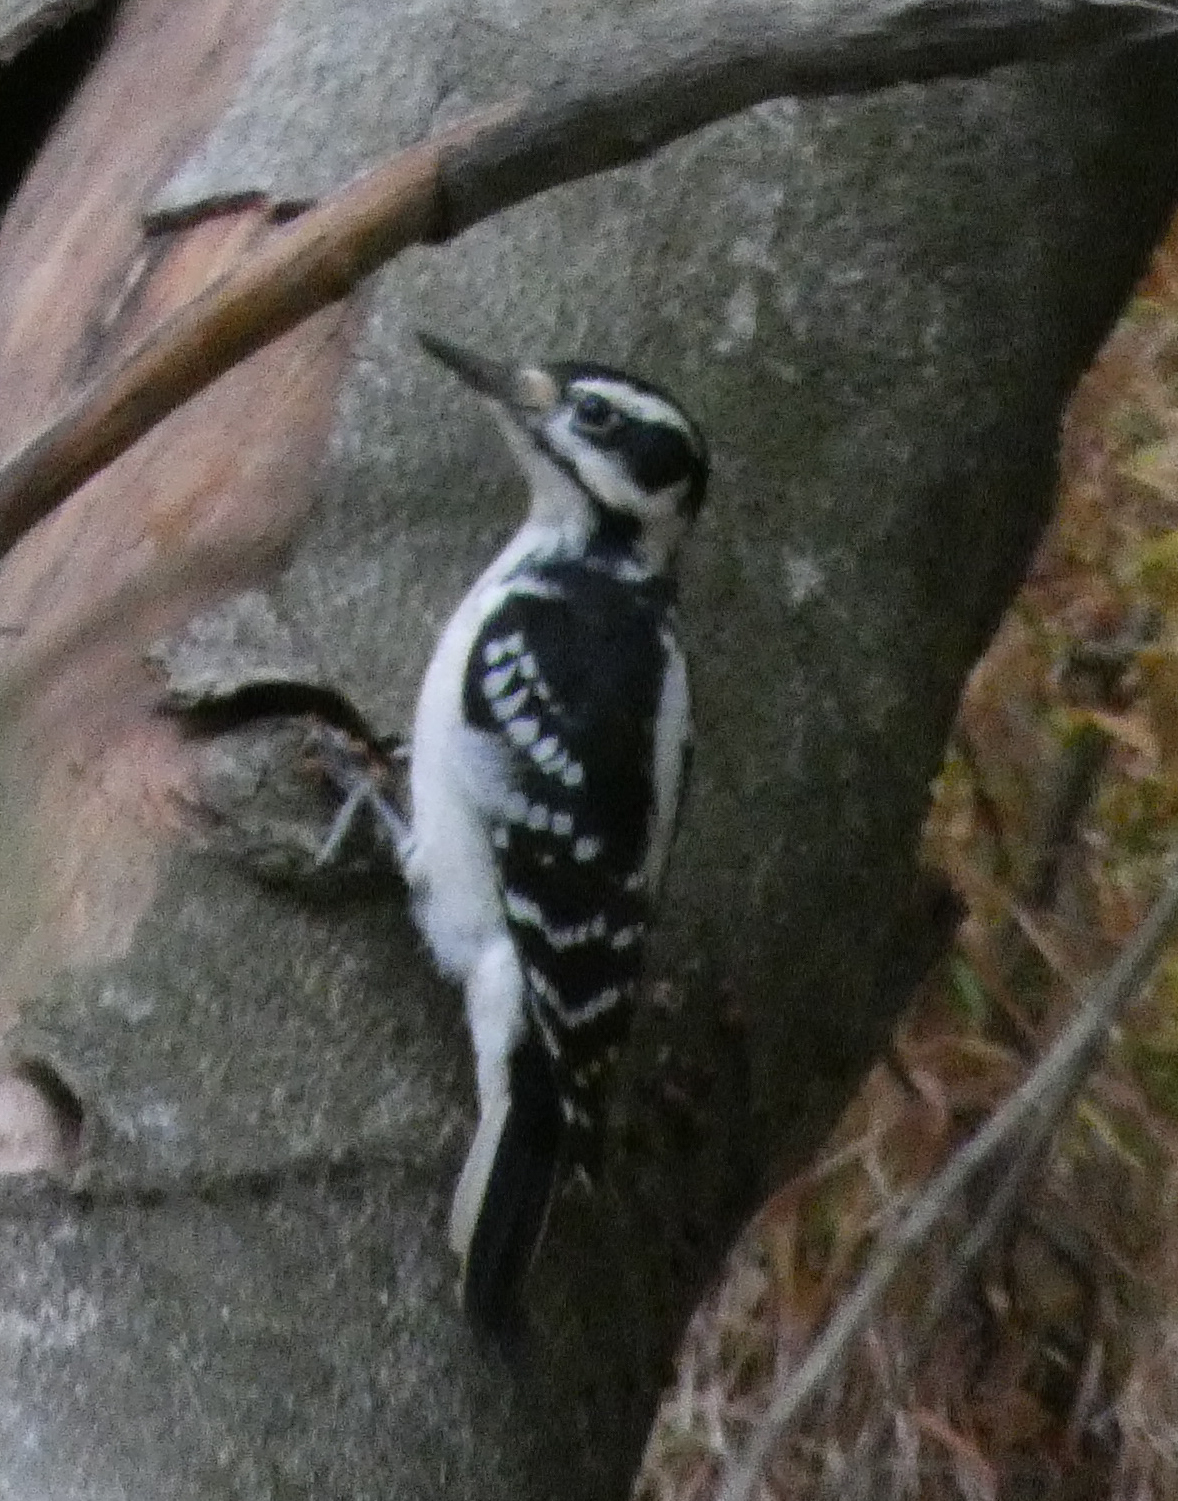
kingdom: Animalia
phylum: Chordata
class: Aves
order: Piciformes
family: Picidae
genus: Leuconotopicus
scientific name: Leuconotopicus villosus
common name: Hairy woodpecker
